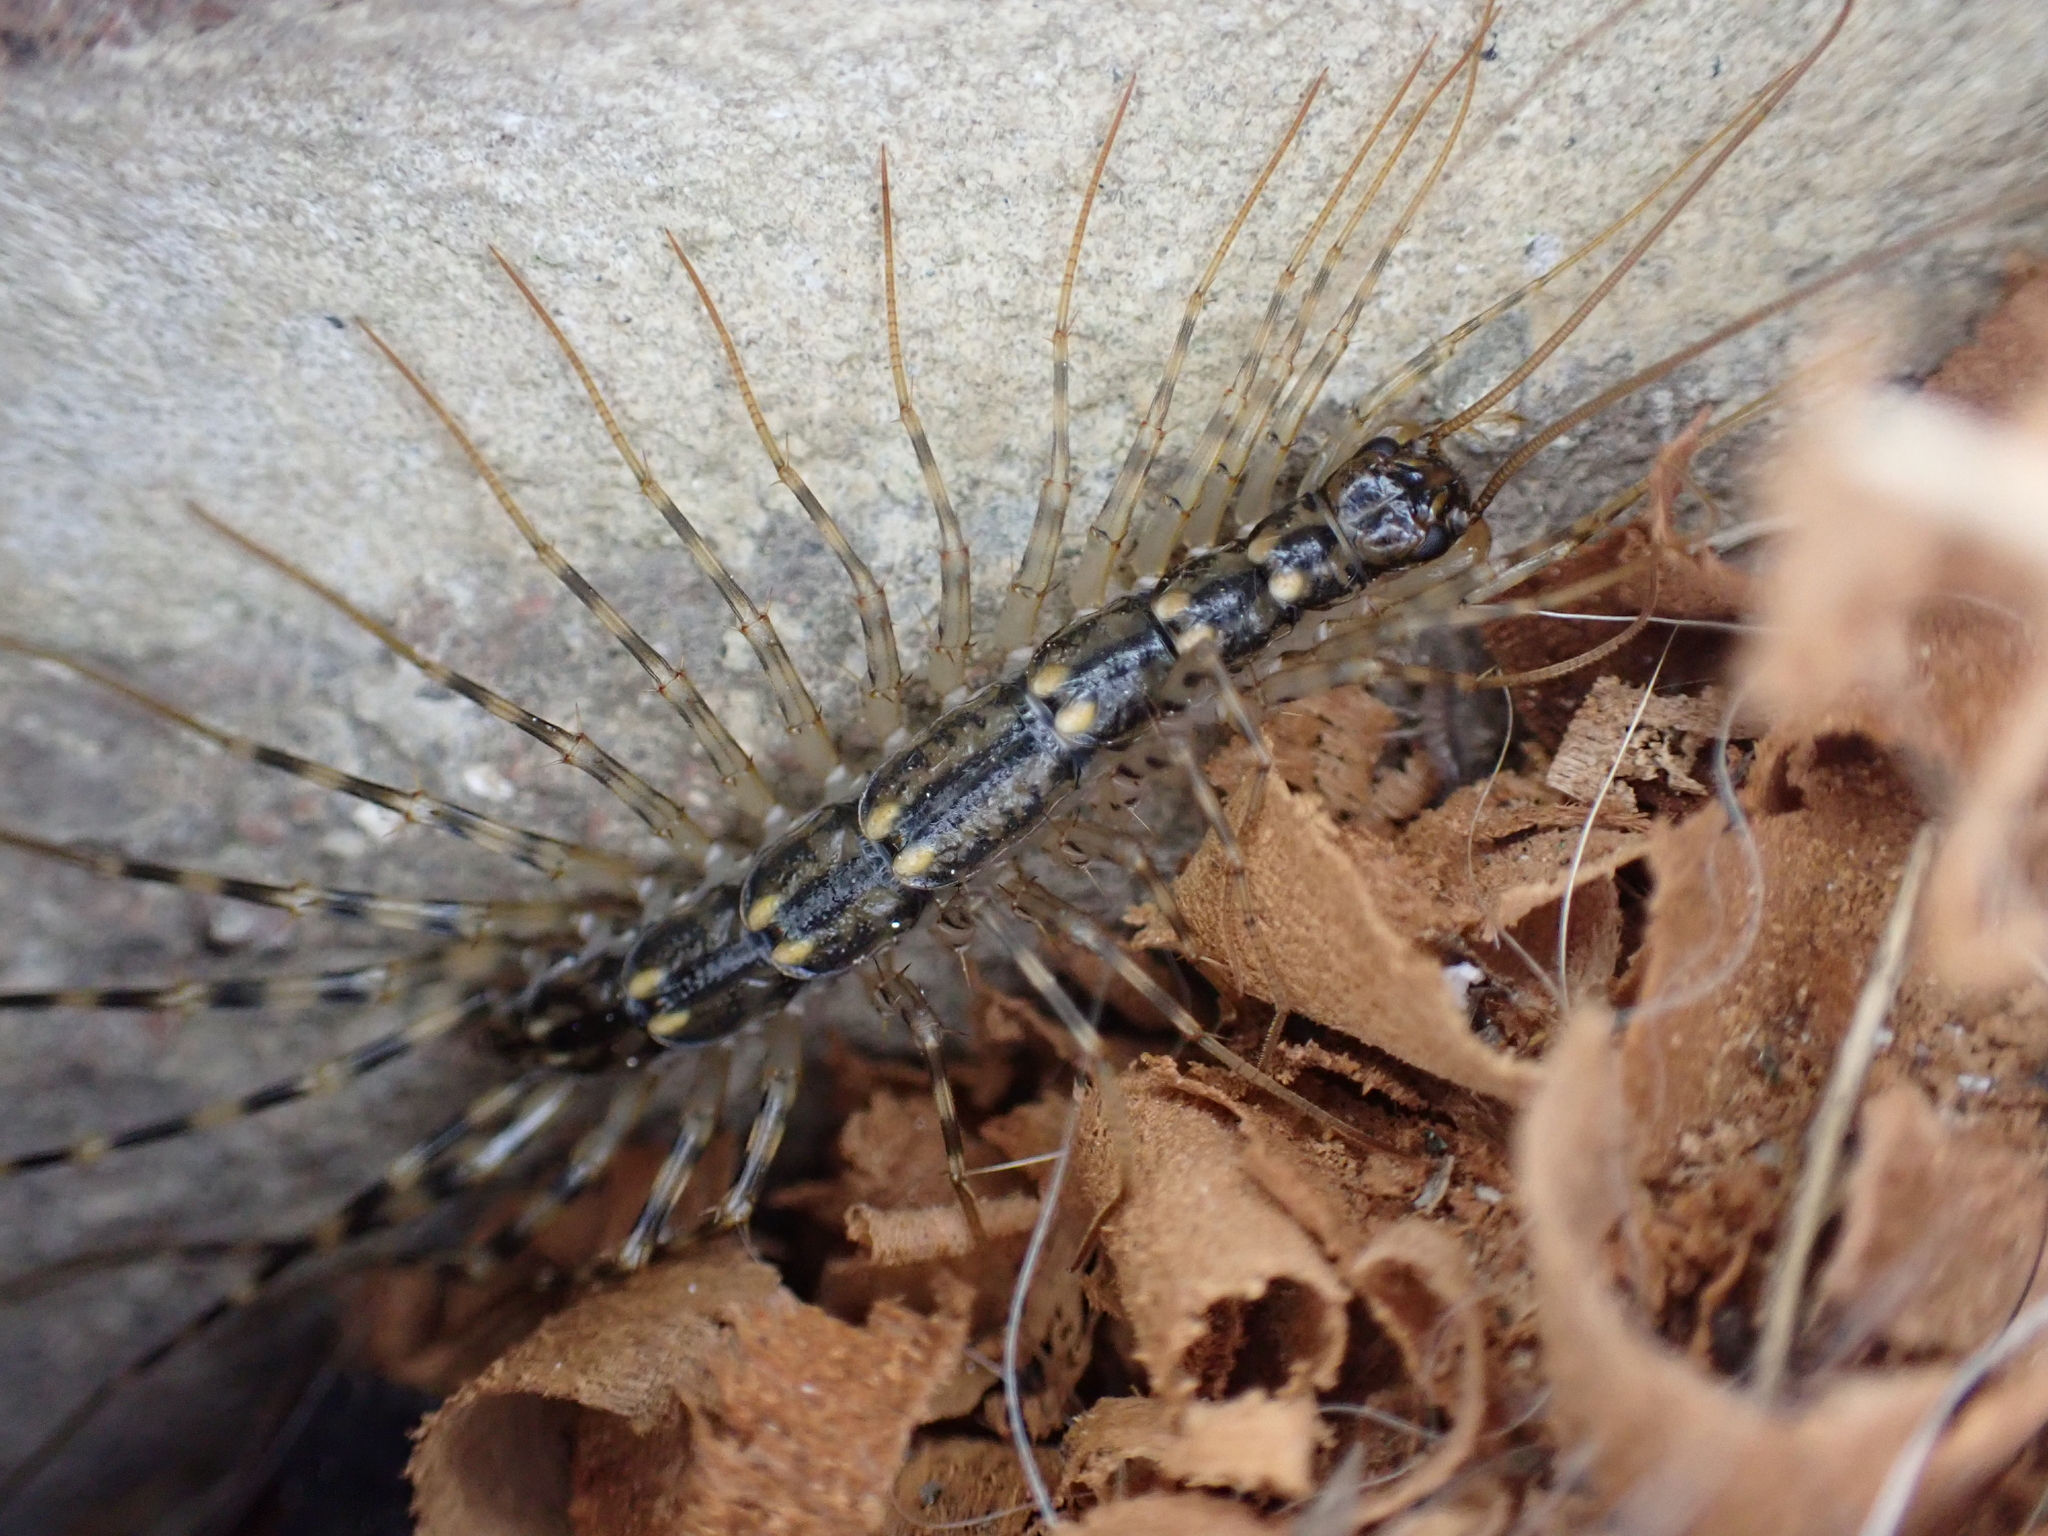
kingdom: Animalia
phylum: Arthropoda
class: Chilopoda
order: Scutigeromorpha
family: Scutigeridae
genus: Scutigera
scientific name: Scutigera coleoptrata
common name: House centipede
